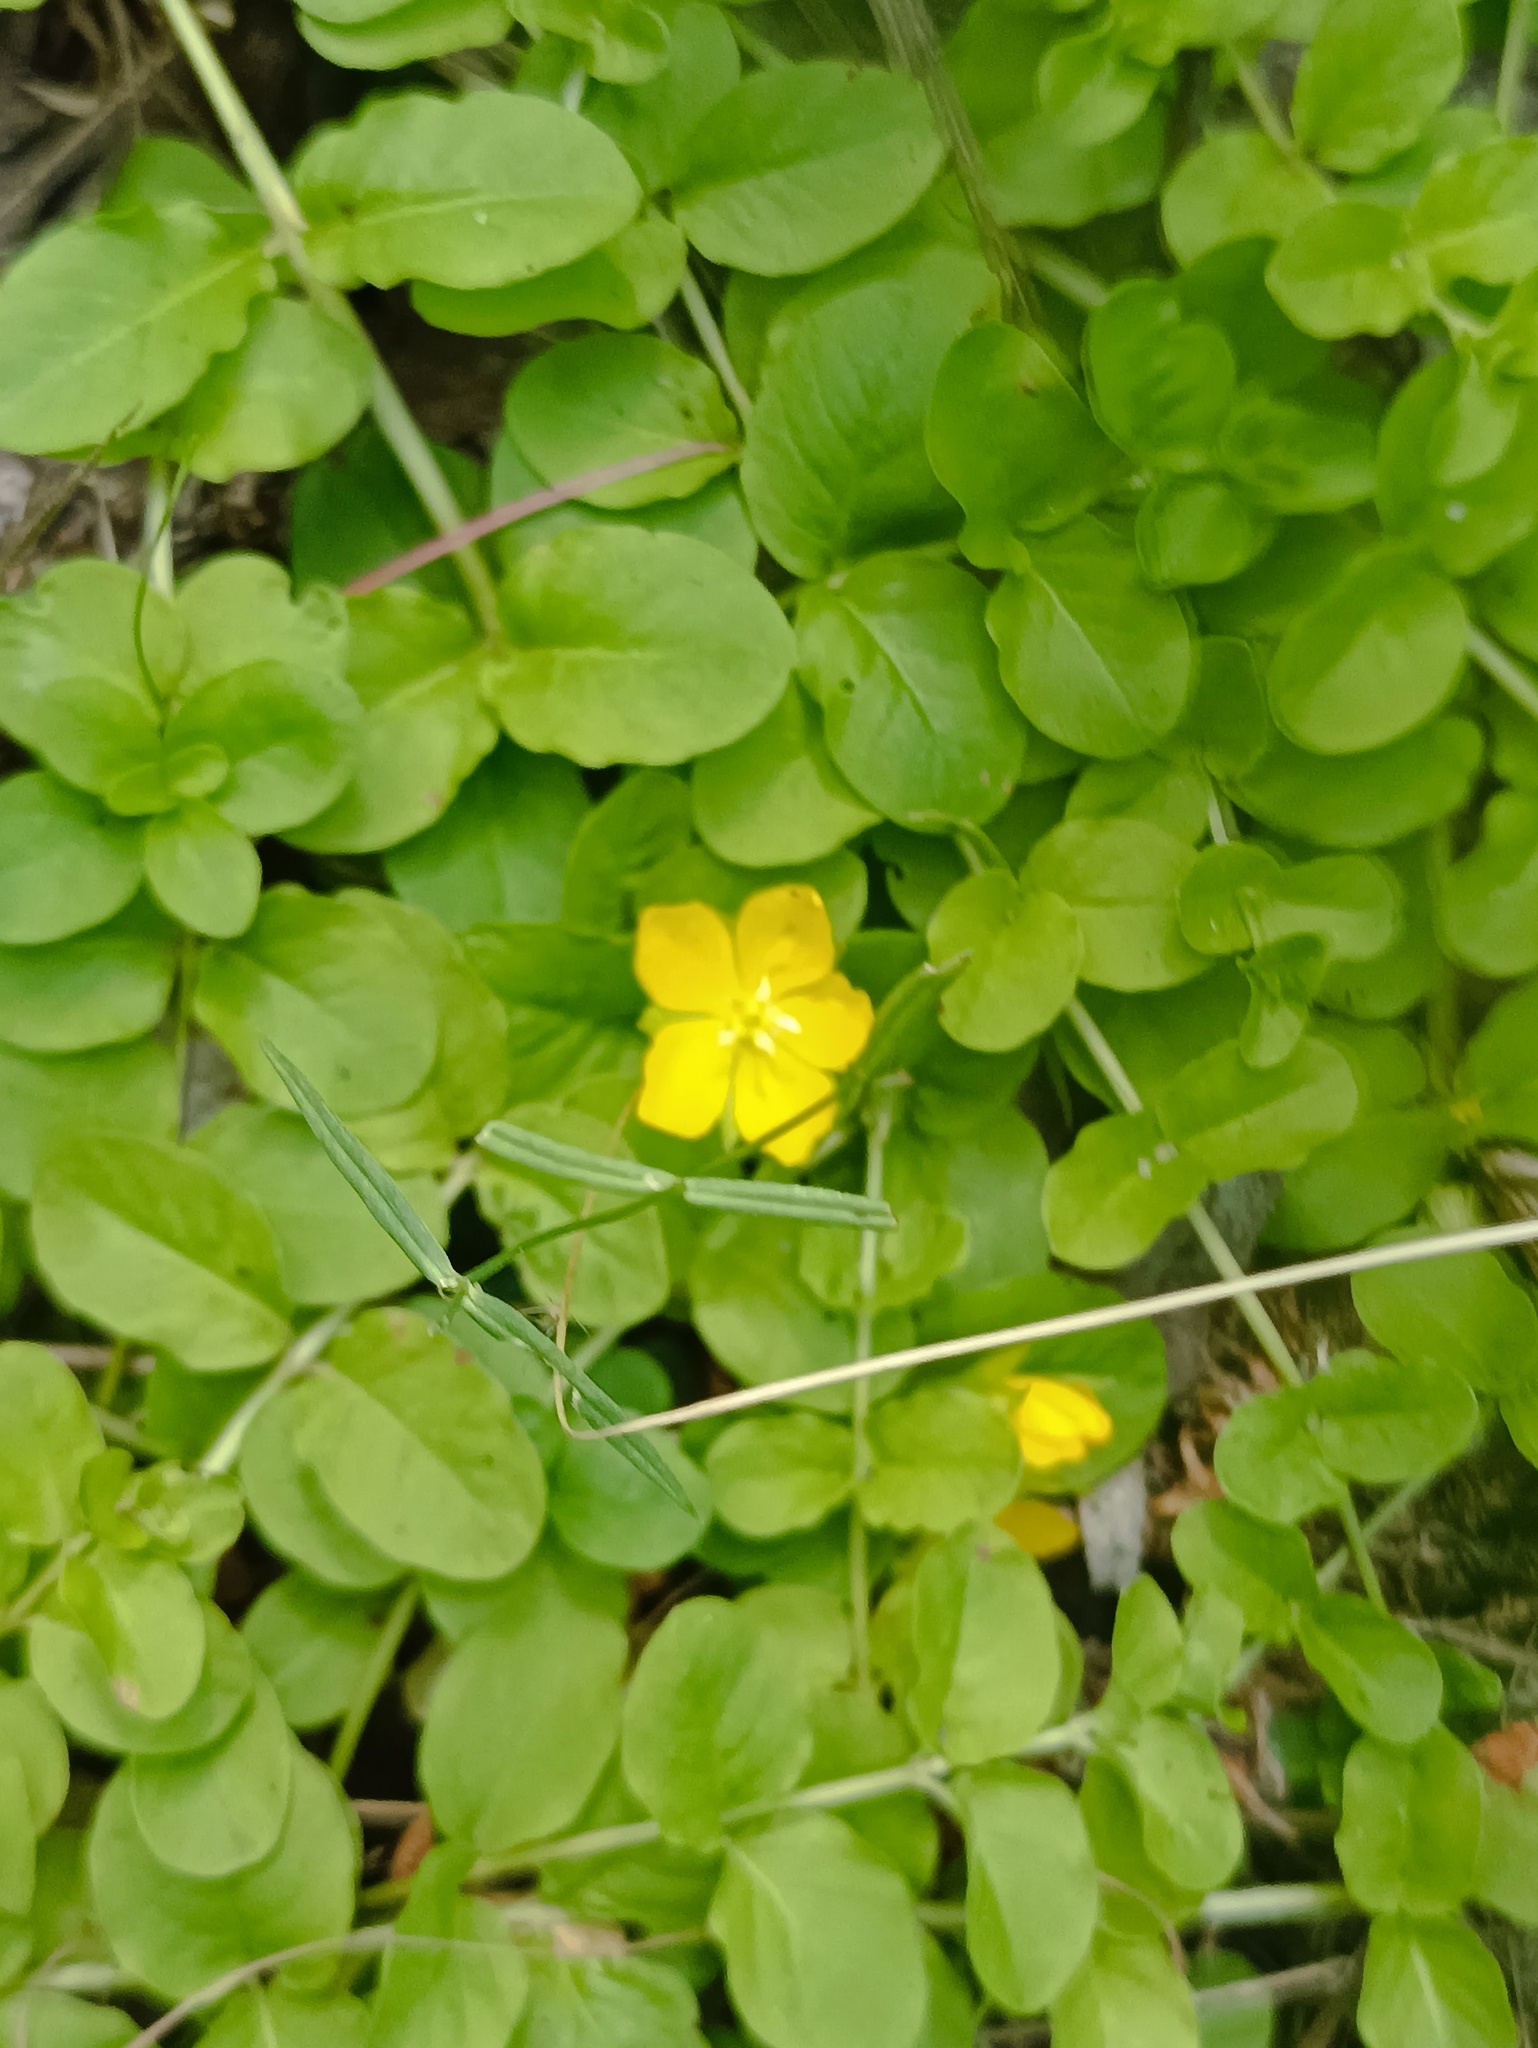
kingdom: Plantae
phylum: Tracheophyta
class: Magnoliopsida
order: Ericales
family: Primulaceae
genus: Lysimachia
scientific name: Lysimachia nummularia
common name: Moneywort
